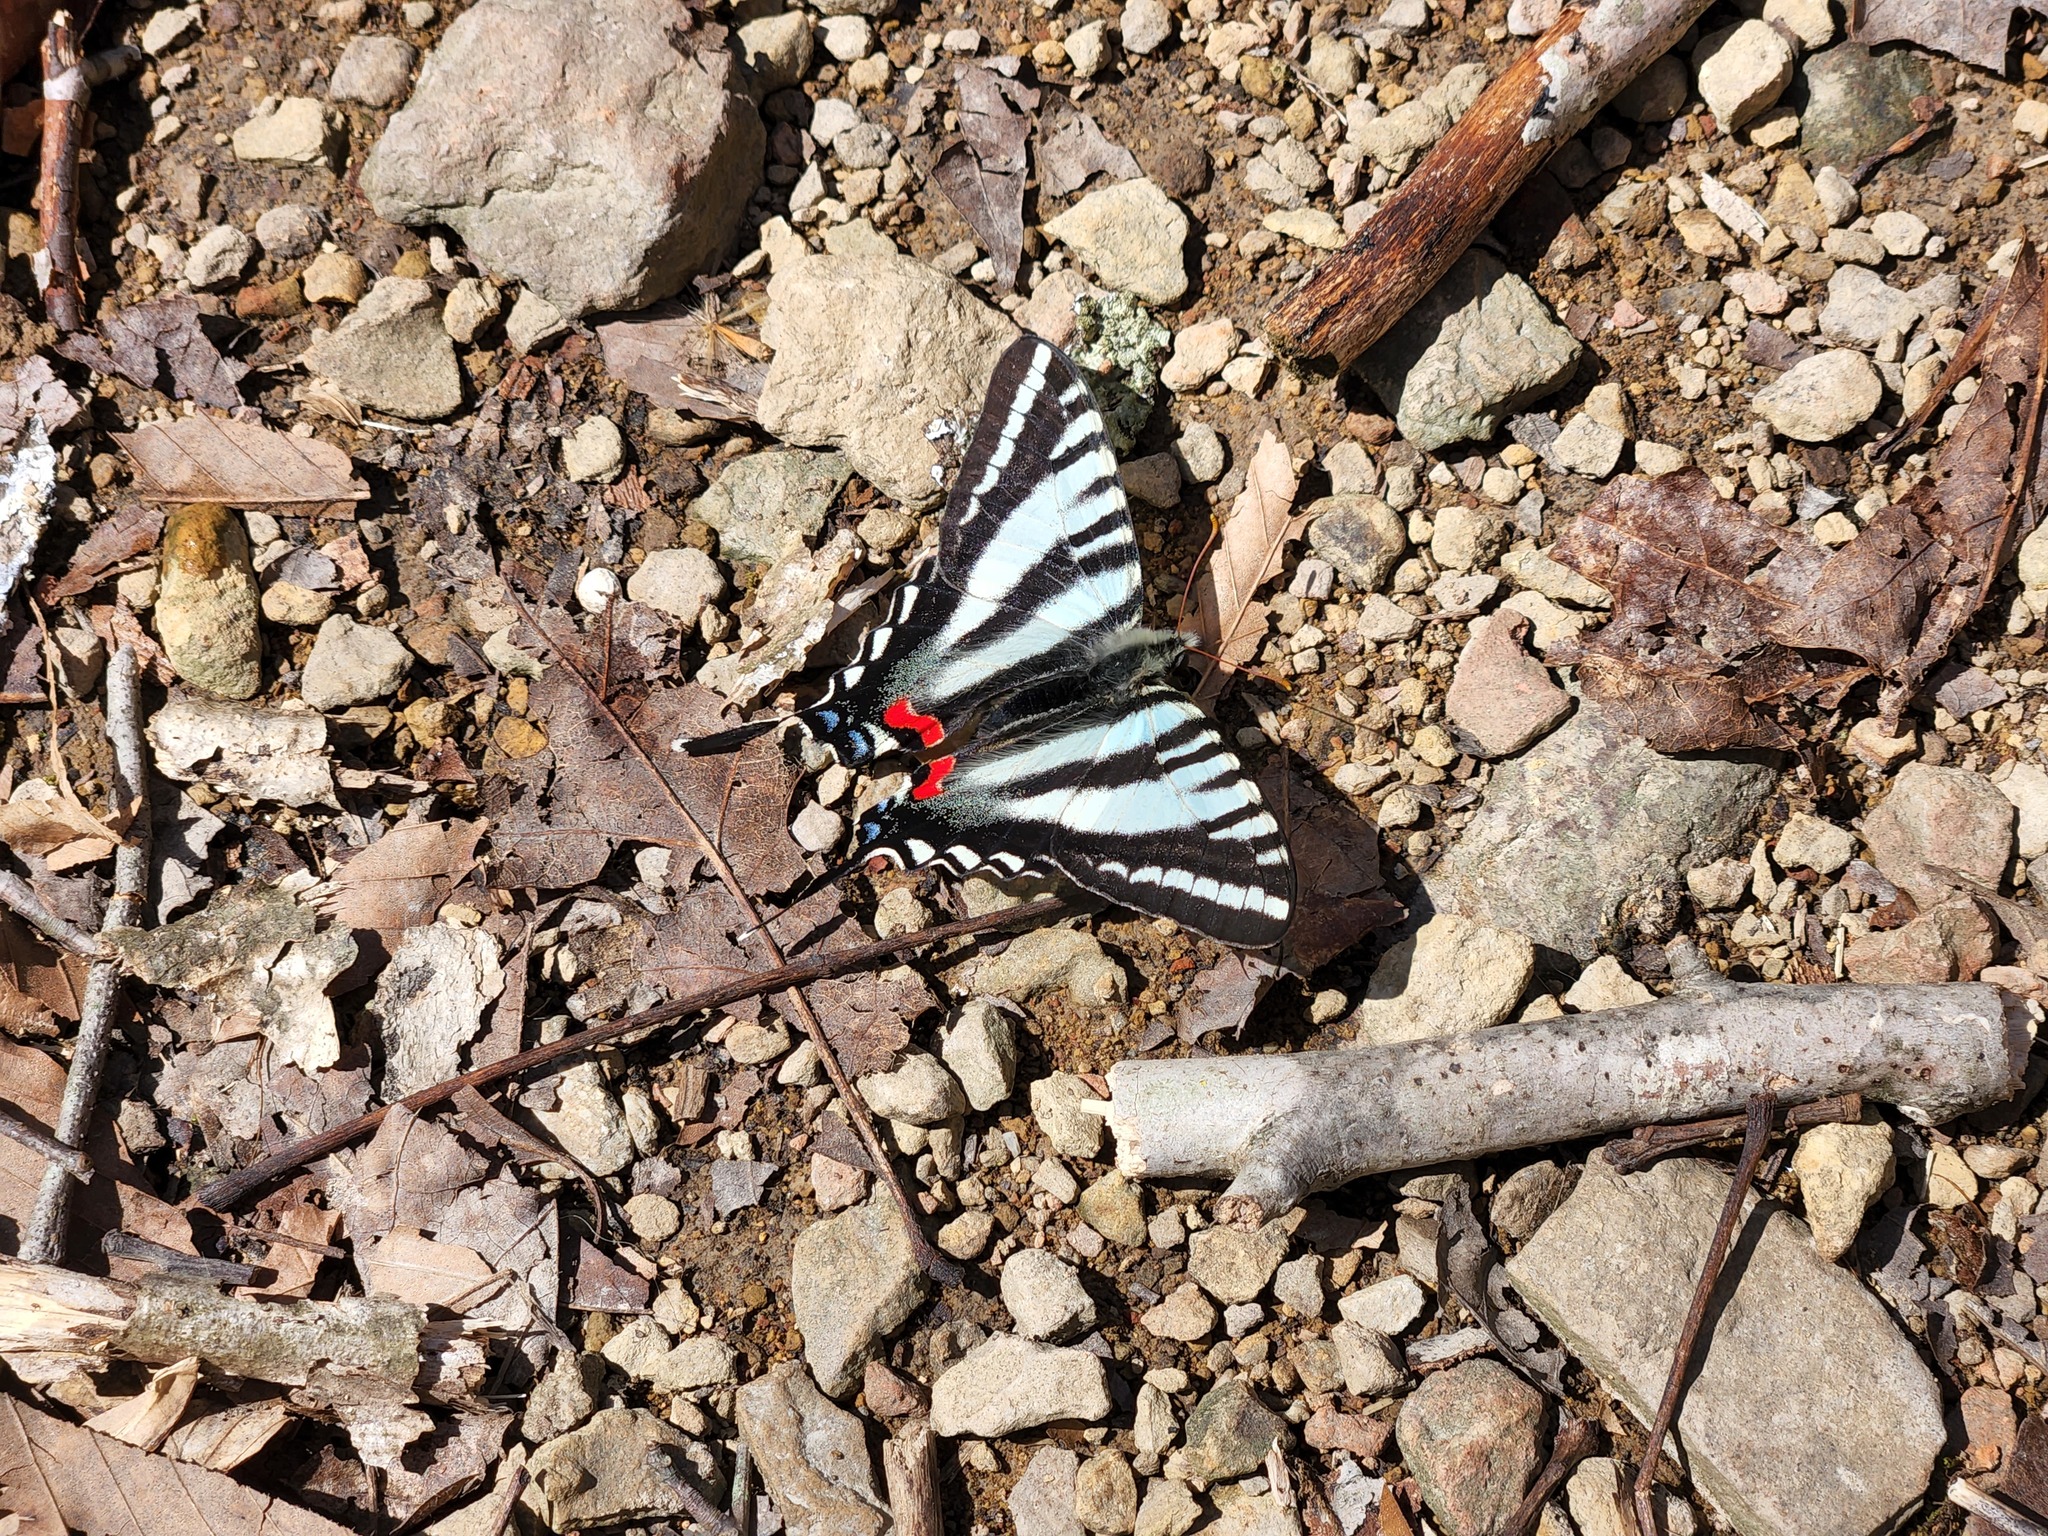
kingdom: Animalia
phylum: Arthropoda
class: Insecta
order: Lepidoptera
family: Papilionidae
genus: Protographium
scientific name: Protographium marcellus
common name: Zebra swallowtail
